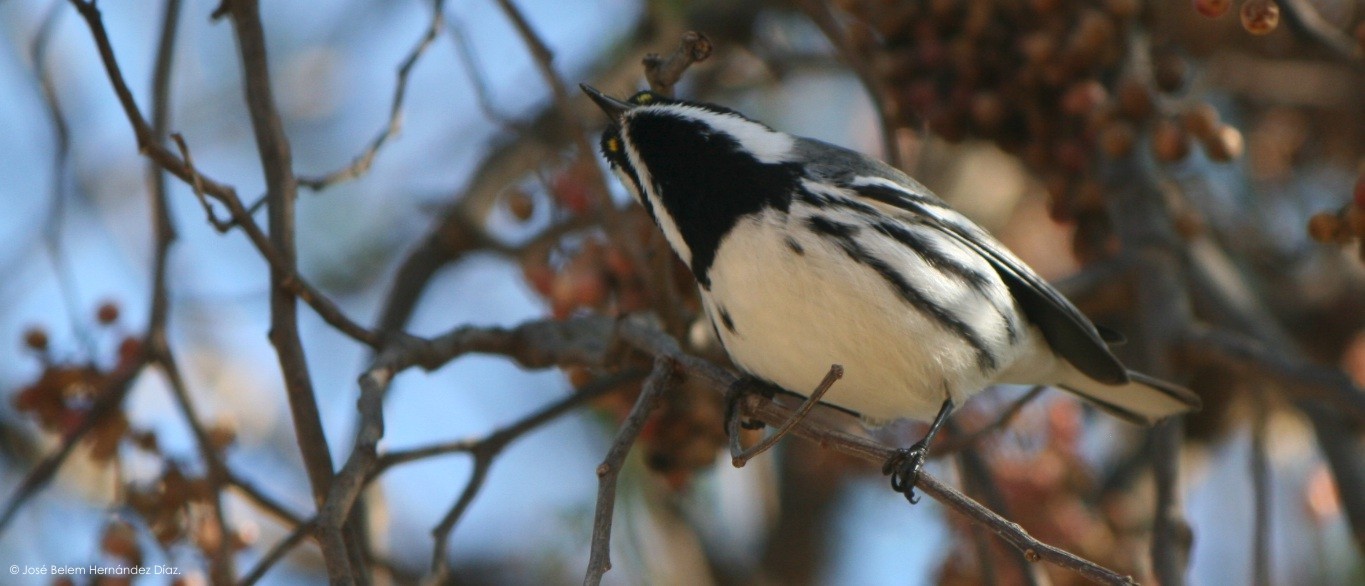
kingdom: Animalia
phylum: Chordata
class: Aves
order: Passeriformes
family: Parulidae
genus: Setophaga
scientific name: Setophaga nigrescens
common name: Black-throated gray warbler
